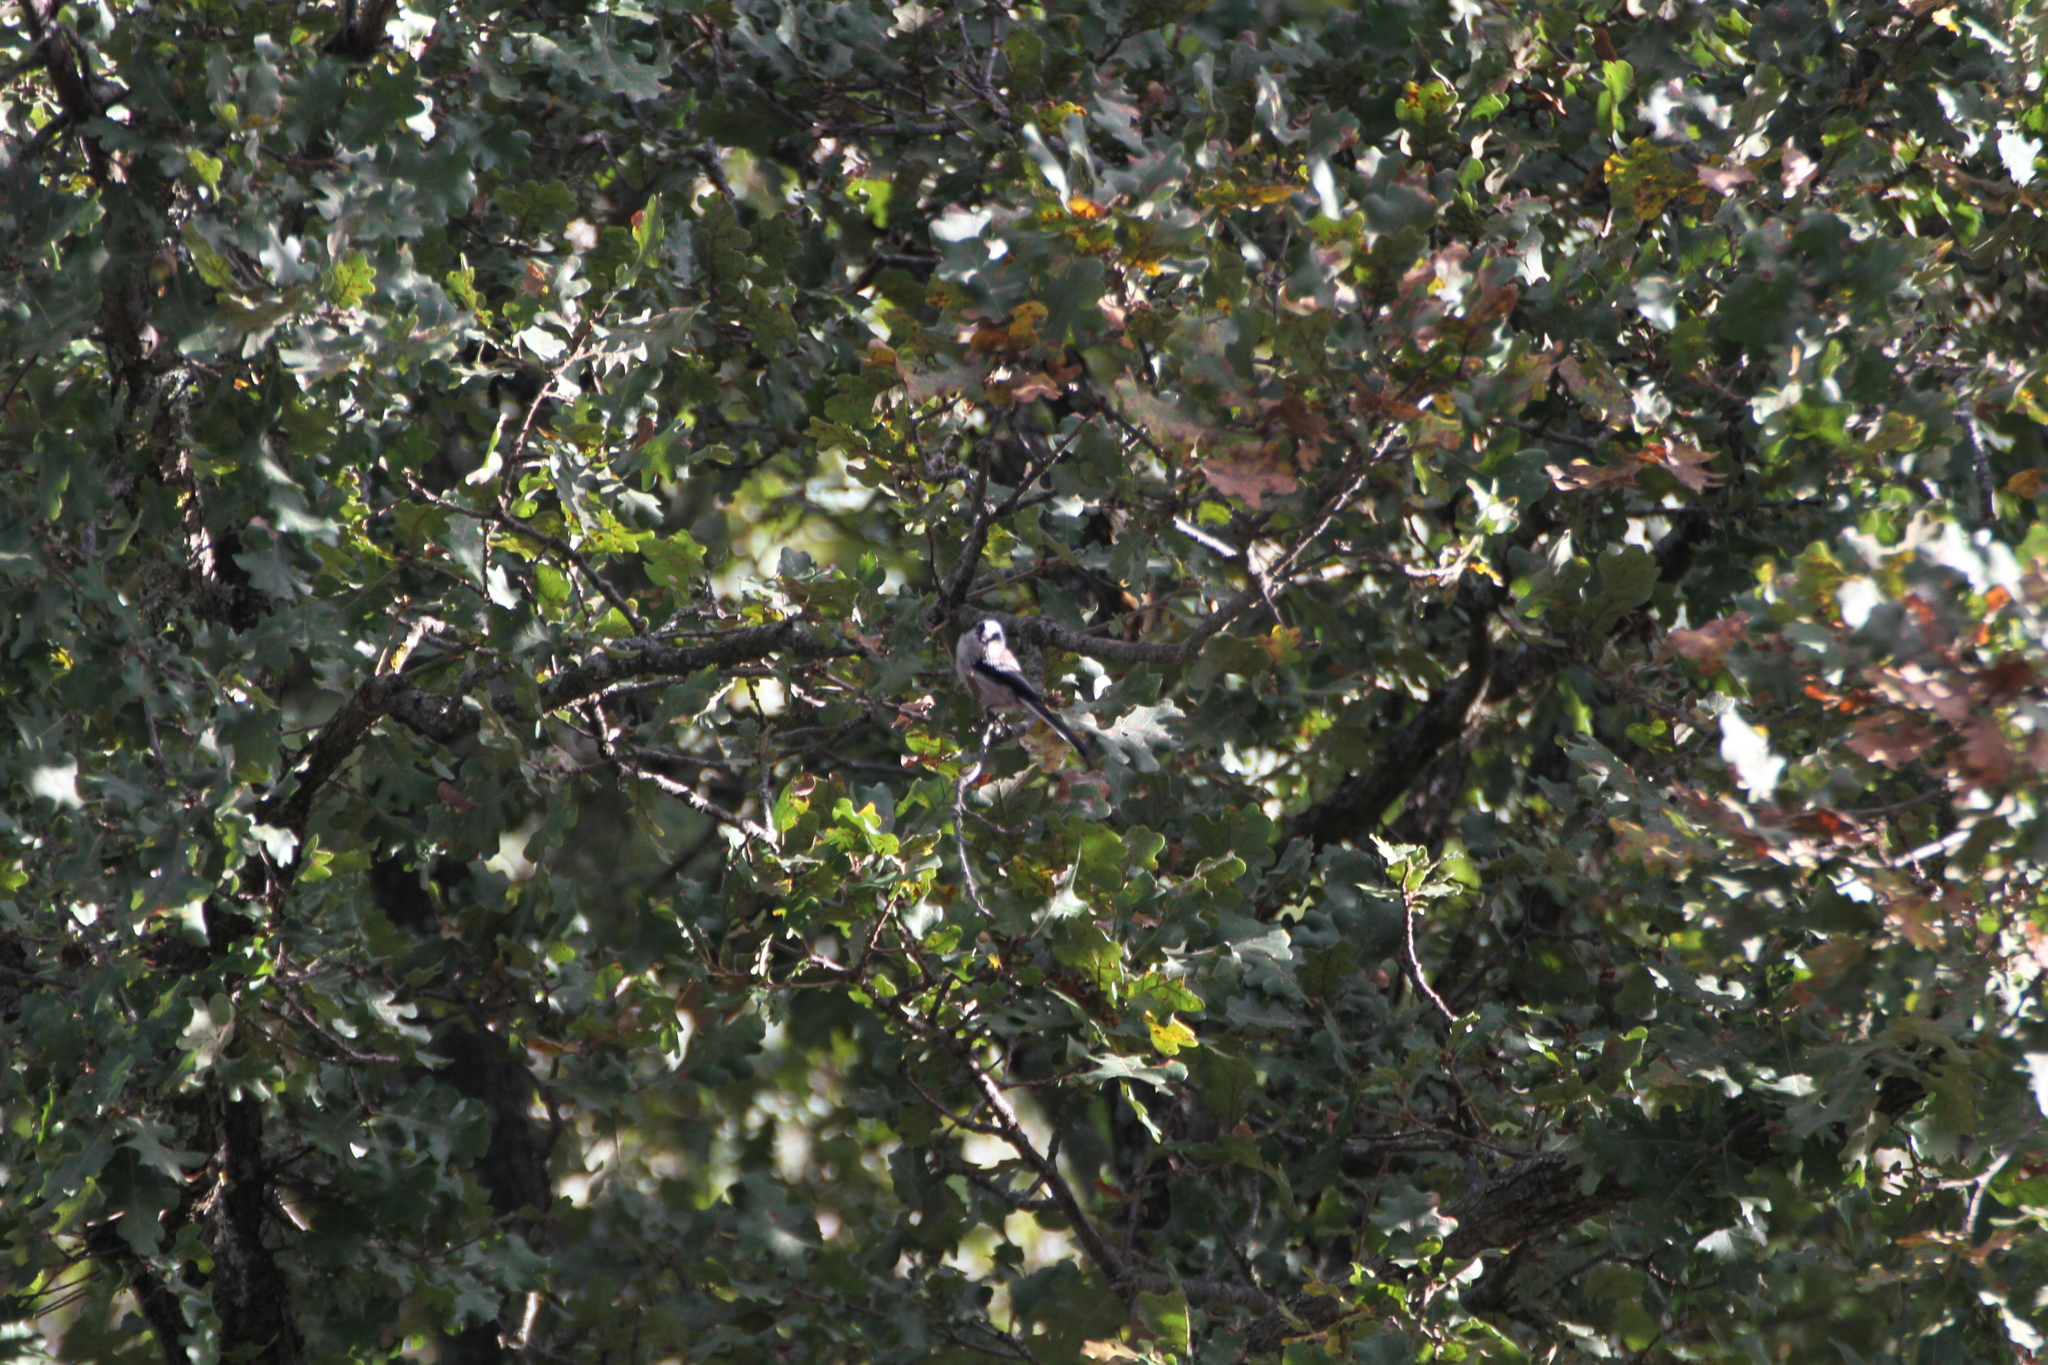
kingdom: Animalia
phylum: Chordata
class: Aves
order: Passeriformes
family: Aegithalidae
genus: Aegithalos
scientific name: Aegithalos caudatus
